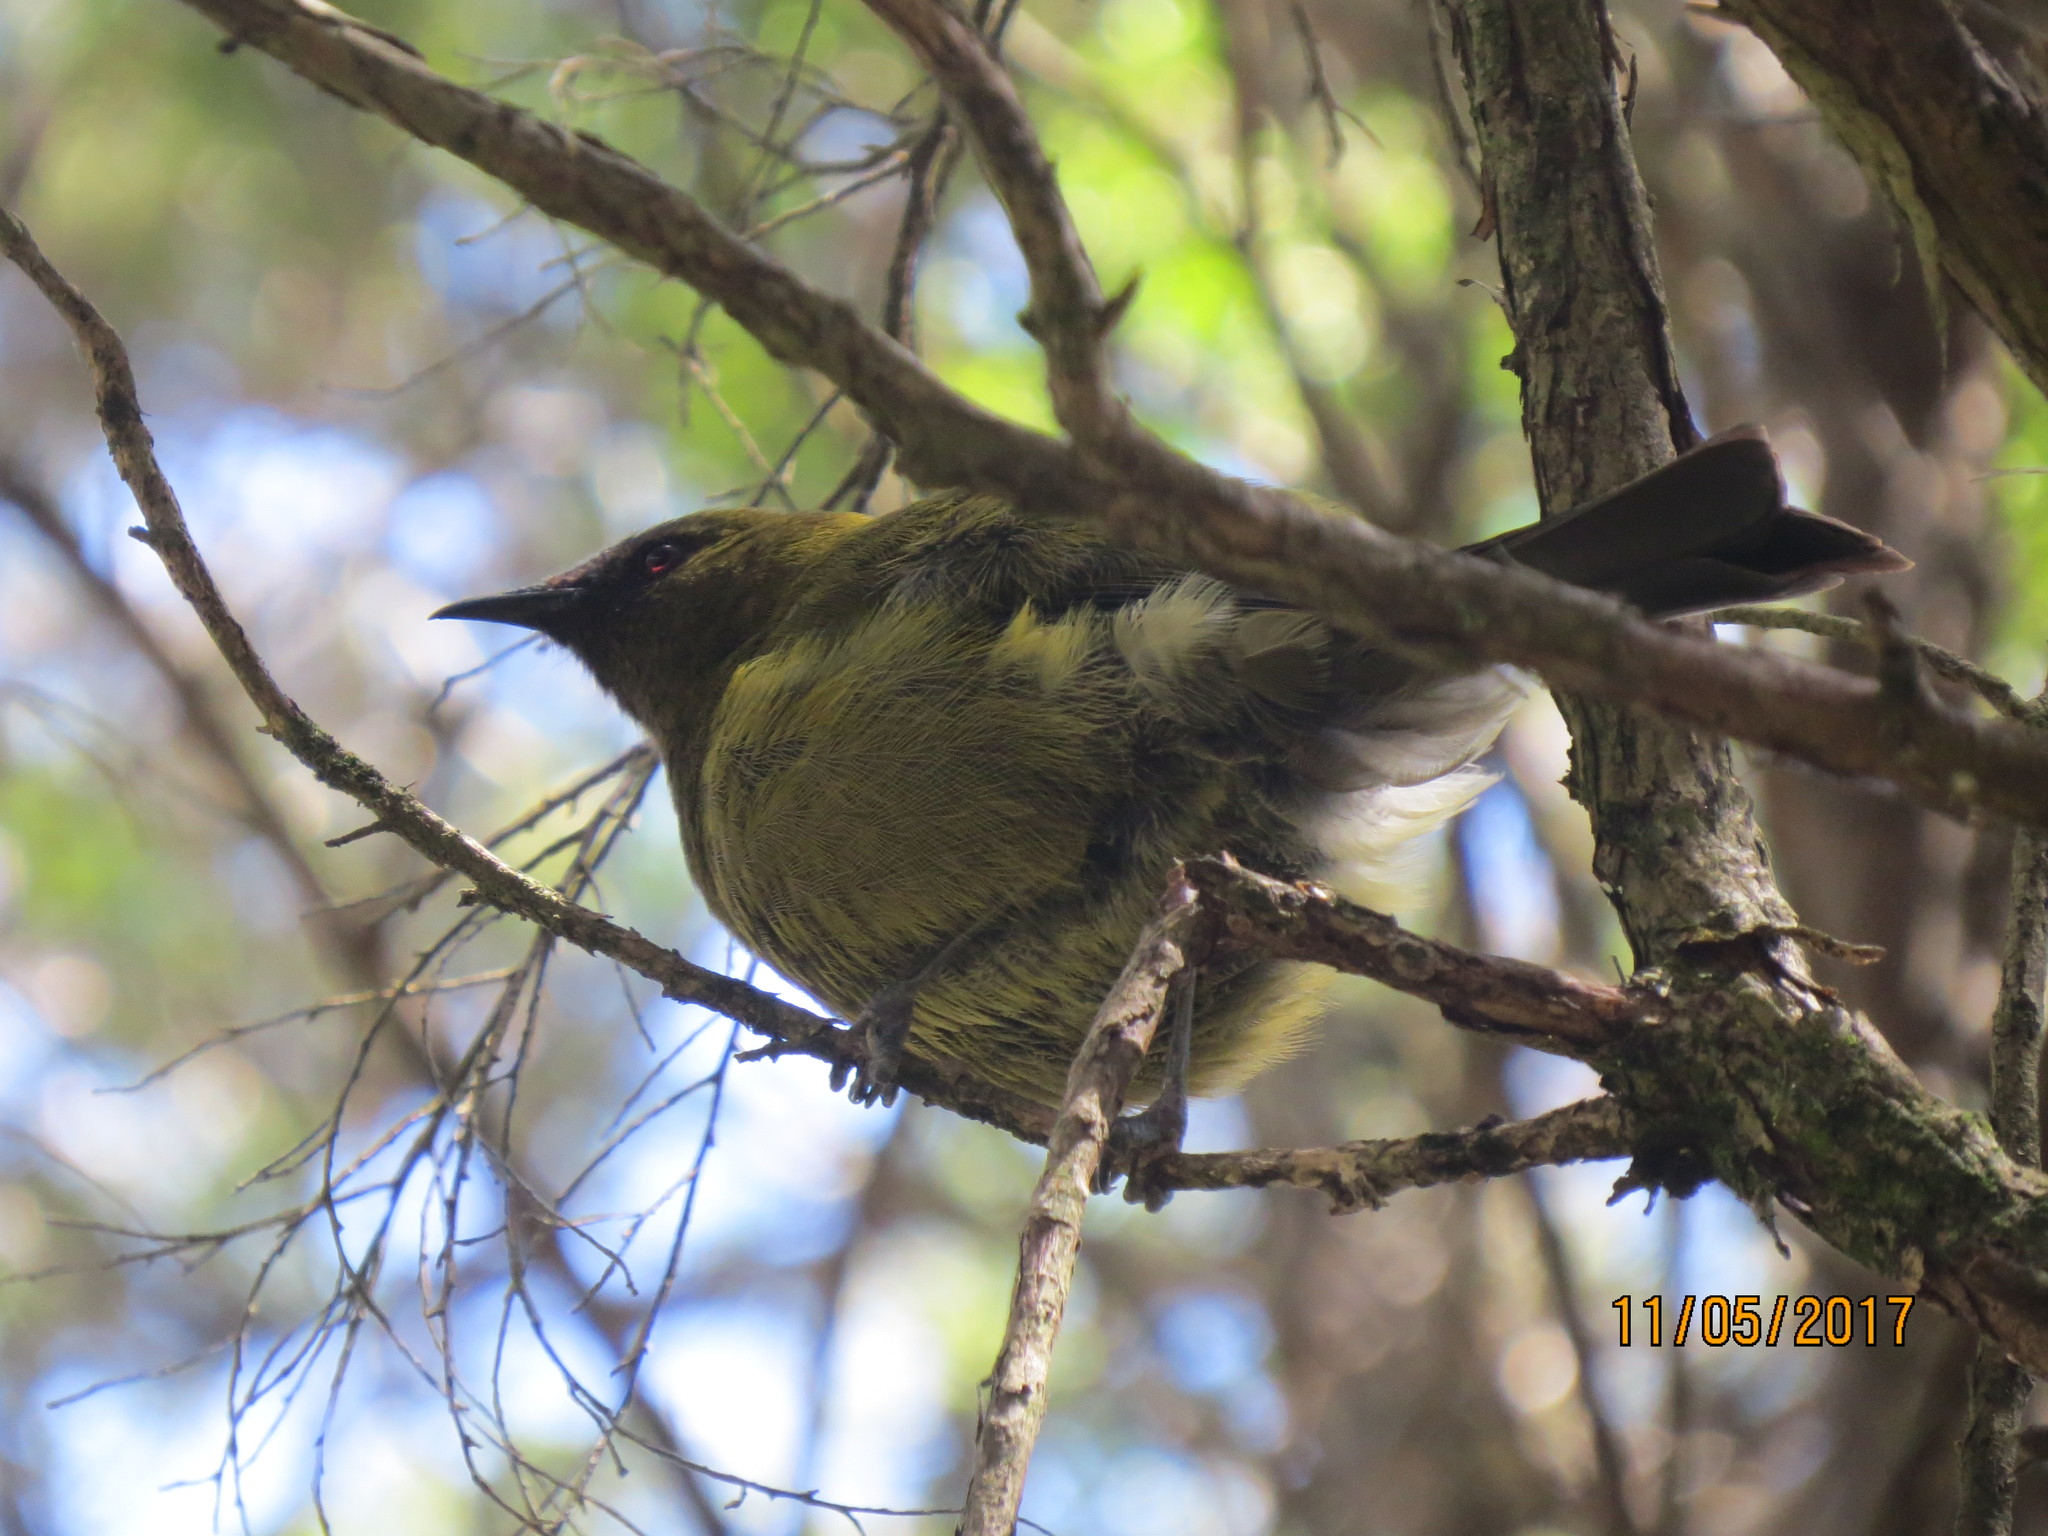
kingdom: Animalia
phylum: Chordata
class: Aves
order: Passeriformes
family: Meliphagidae
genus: Anthornis
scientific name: Anthornis melanura
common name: New zealand bellbird
